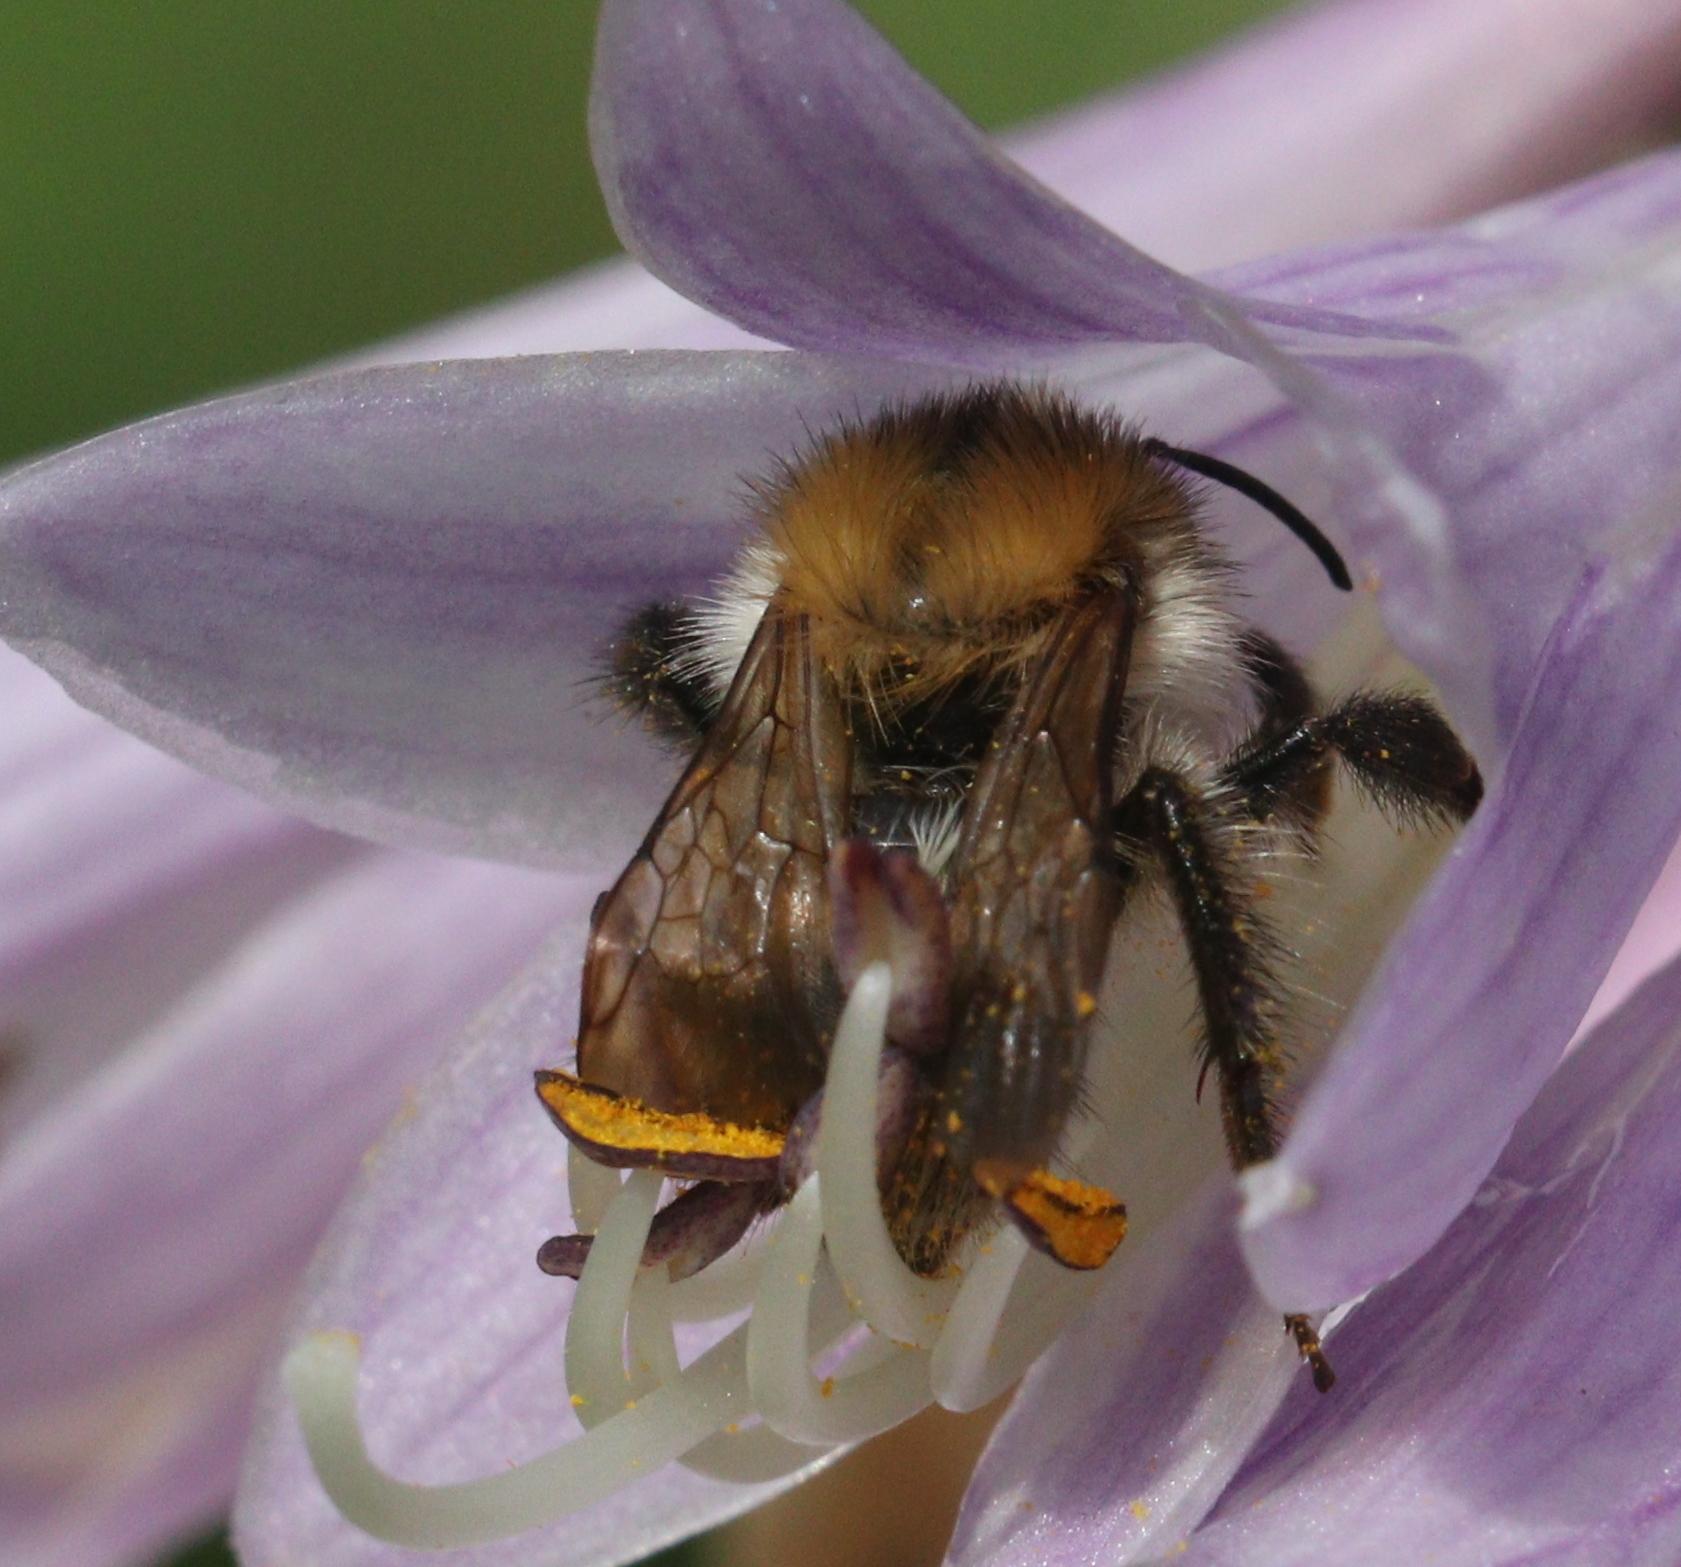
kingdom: Animalia
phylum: Arthropoda
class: Insecta
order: Hymenoptera
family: Apidae
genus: Bombus
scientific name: Bombus pascuorum
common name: Common carder bee
